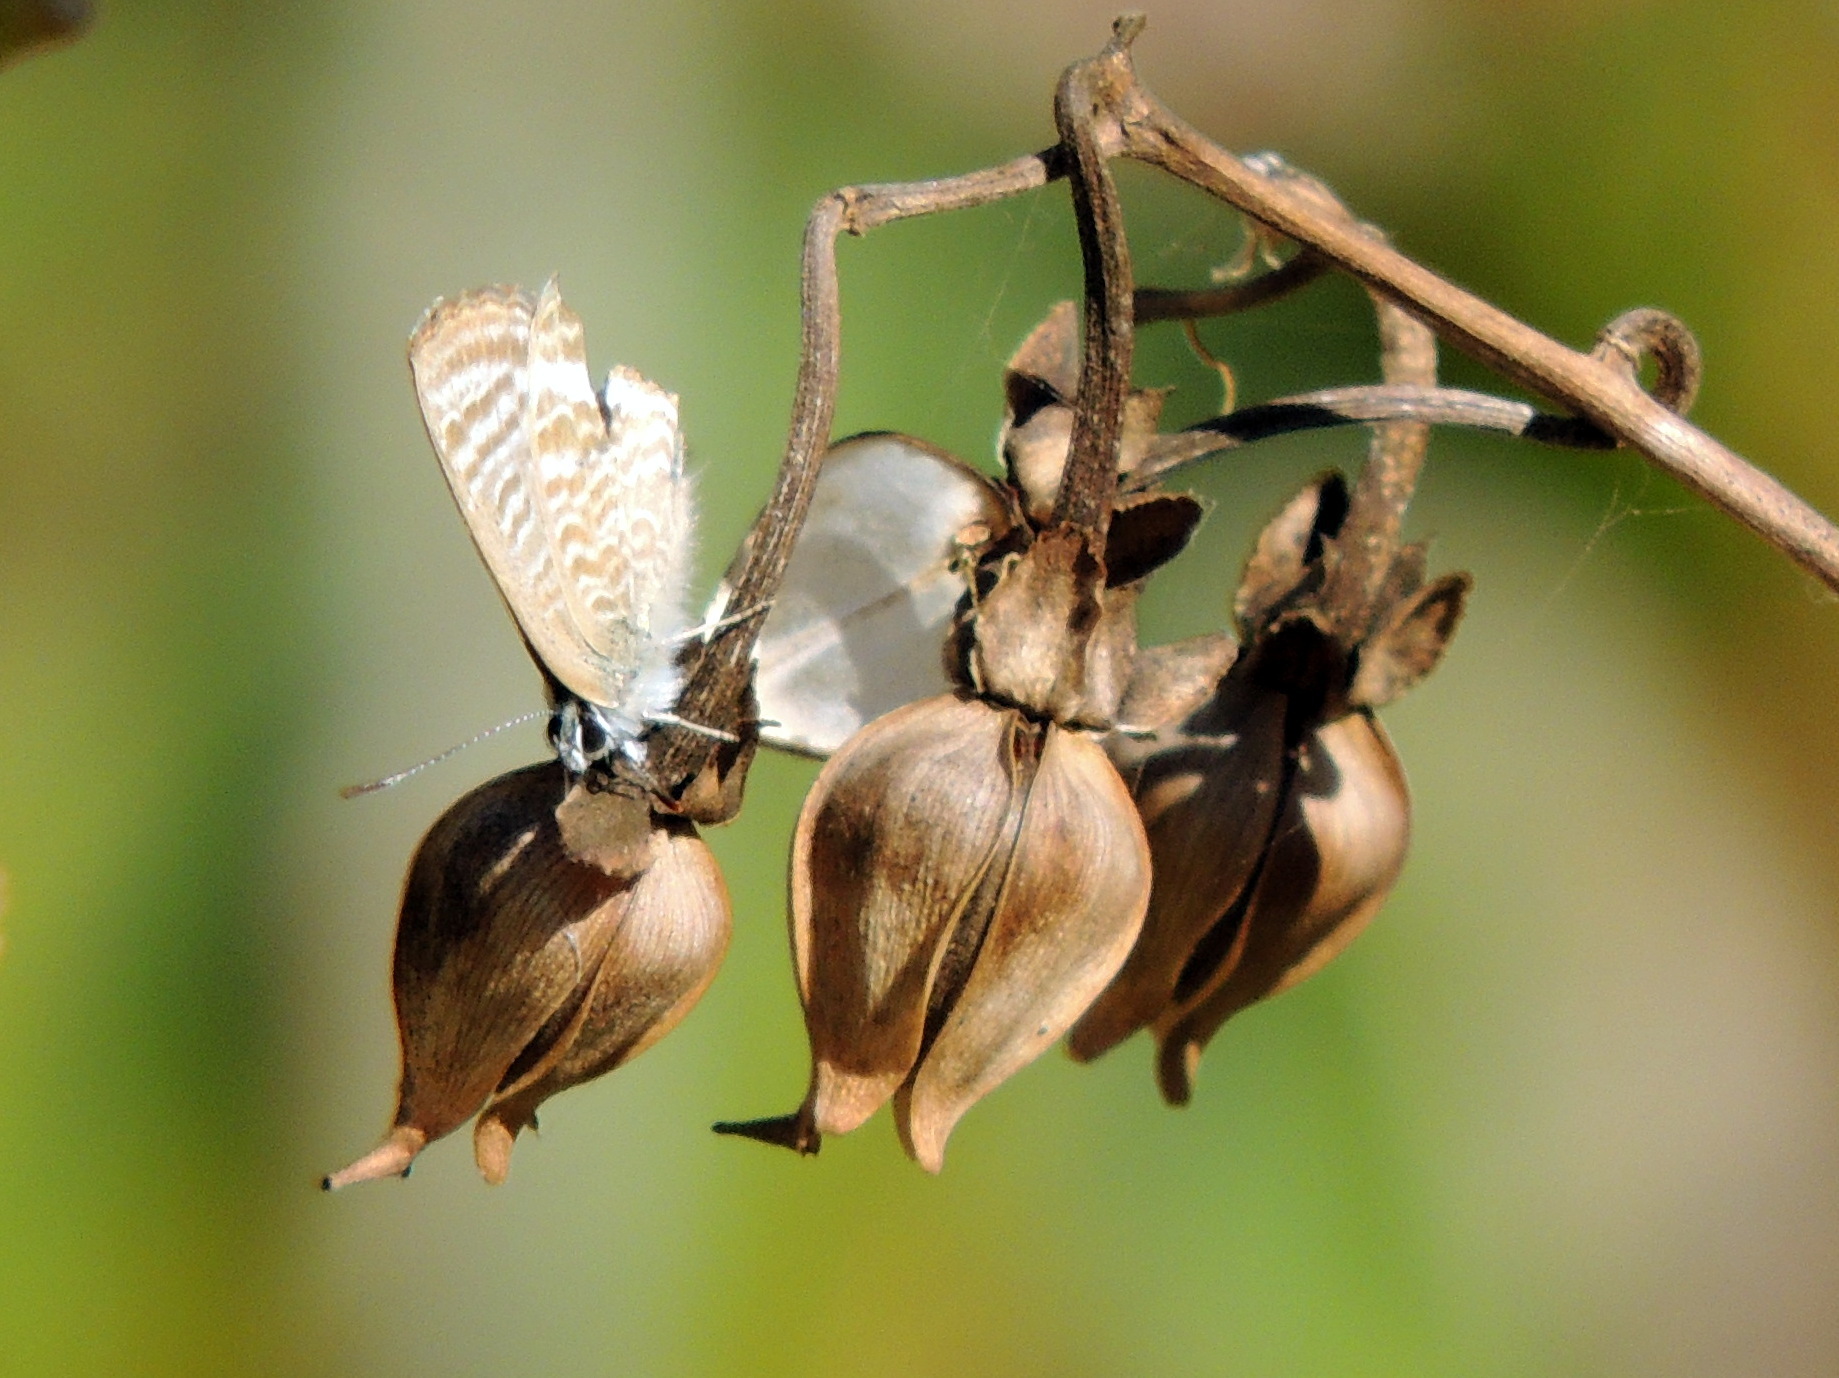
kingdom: Animalia
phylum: Arthropoda
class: Insecta
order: Lepidoptera
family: Lycaenidae
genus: Lampides
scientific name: Lampides boeticus
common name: Long-tailed blue
